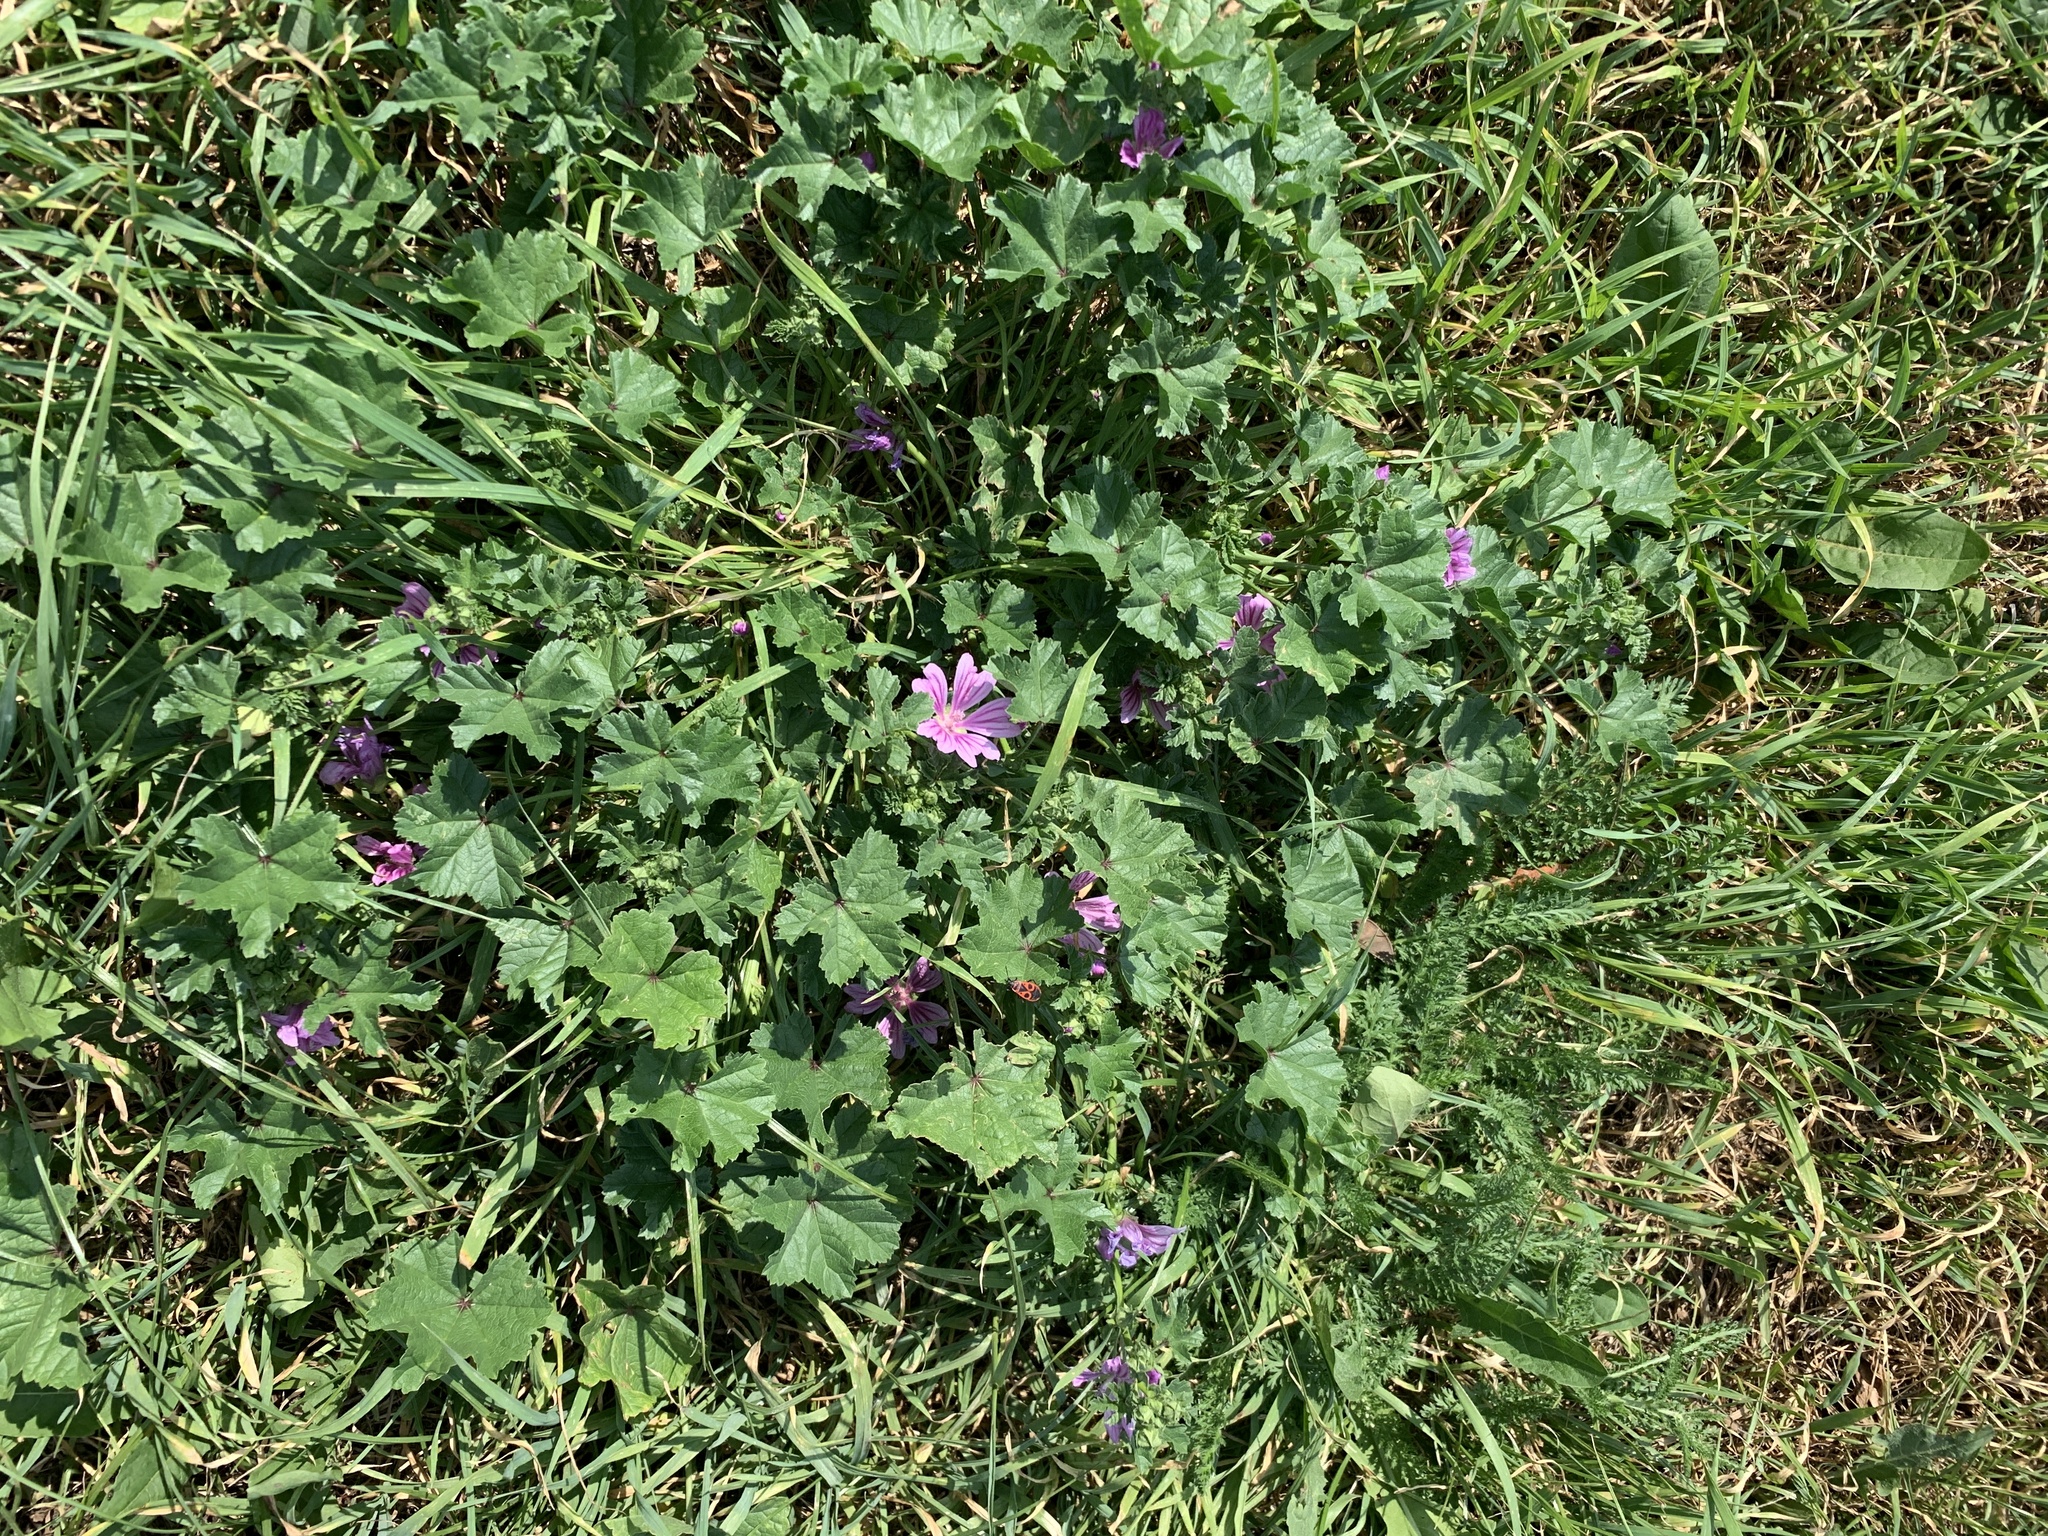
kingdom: Plantae
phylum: Tracheophyta
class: Magnoliopsida
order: Malvales
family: Malvaceae
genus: Malva
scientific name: Malva sylvestris
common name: Common mallow
